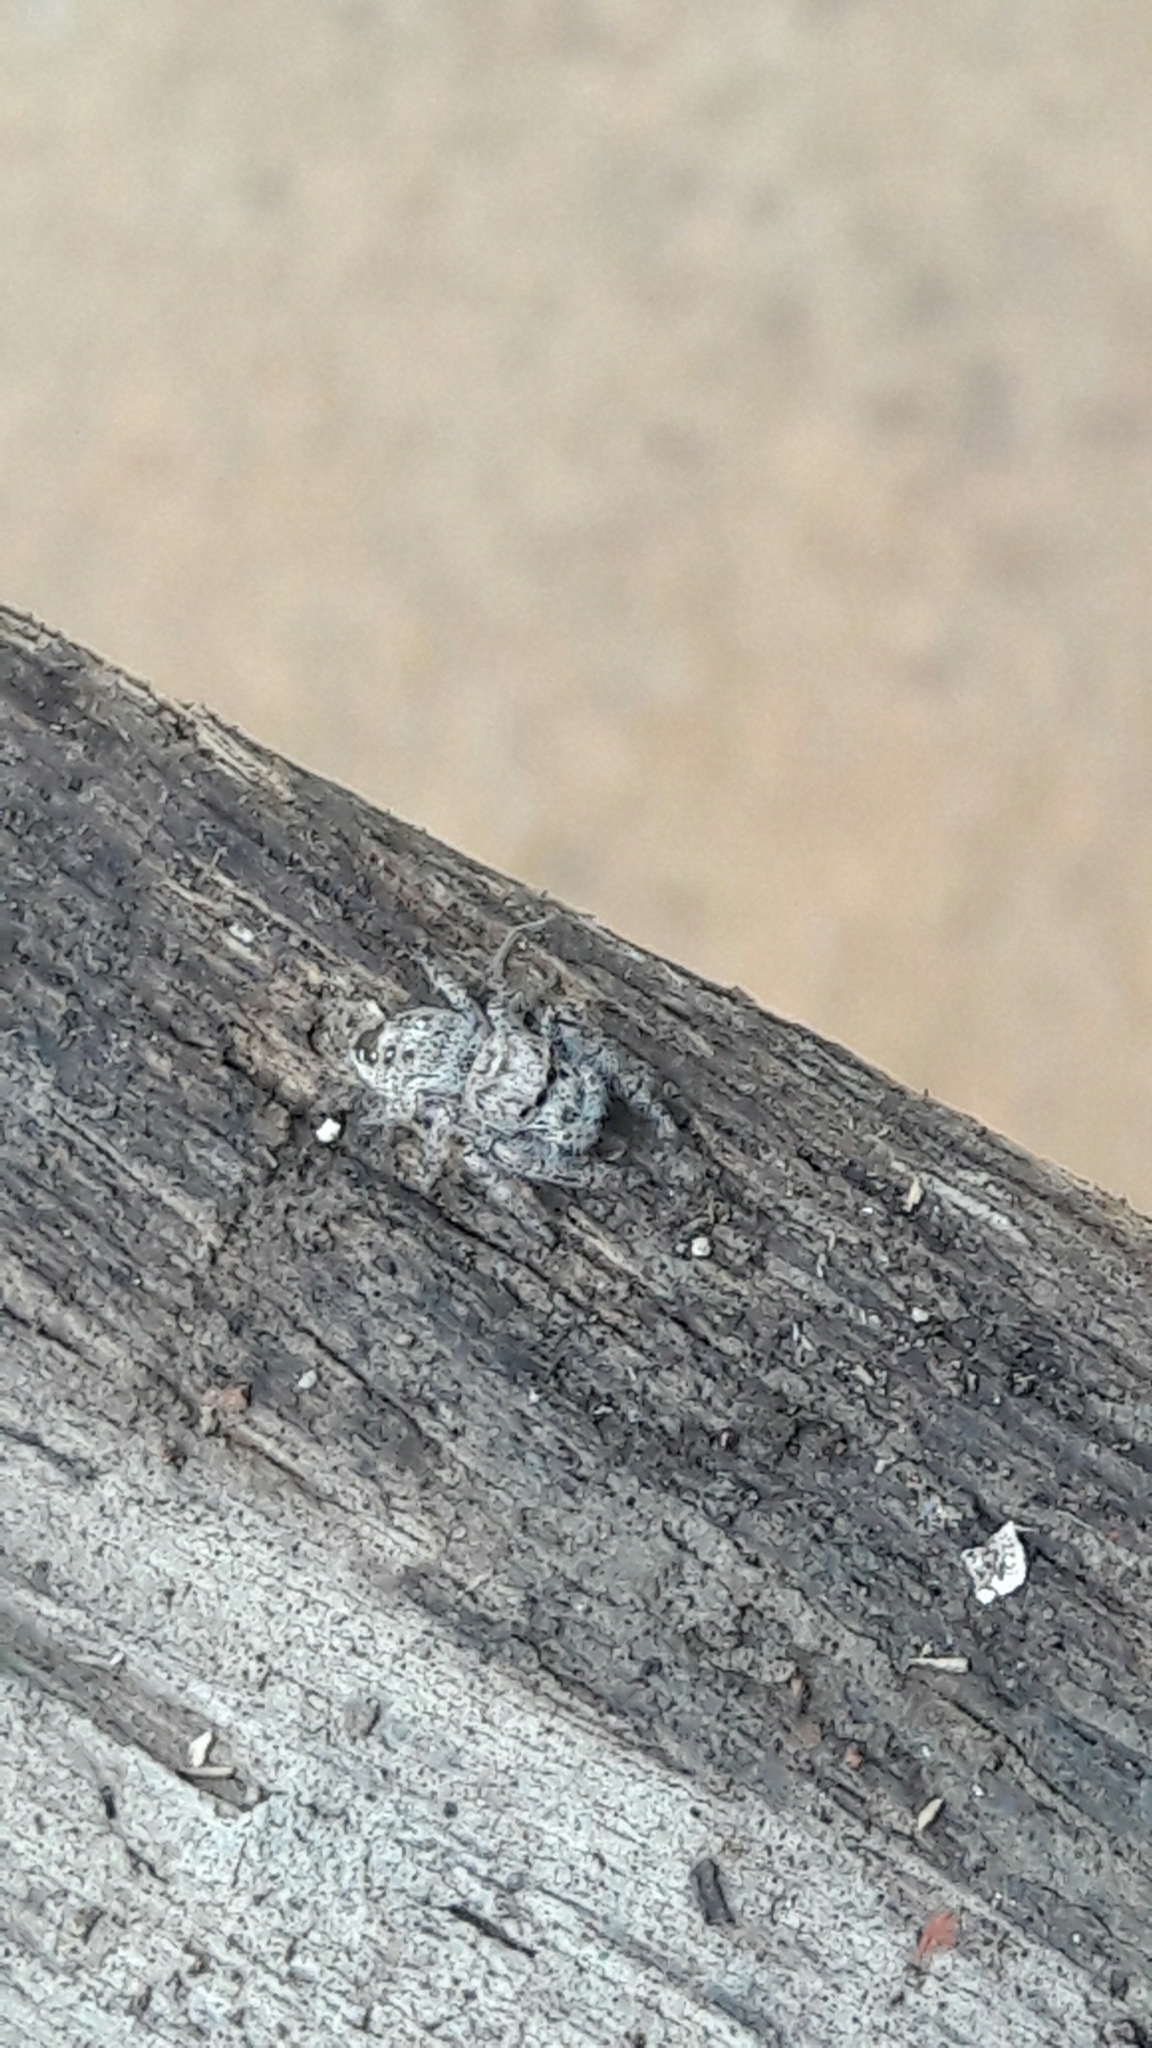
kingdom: Animalia
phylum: Arthropoda
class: Arachnida
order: Araneae
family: Salticidae
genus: Metaphidippus
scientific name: Metaphidippus smithi
